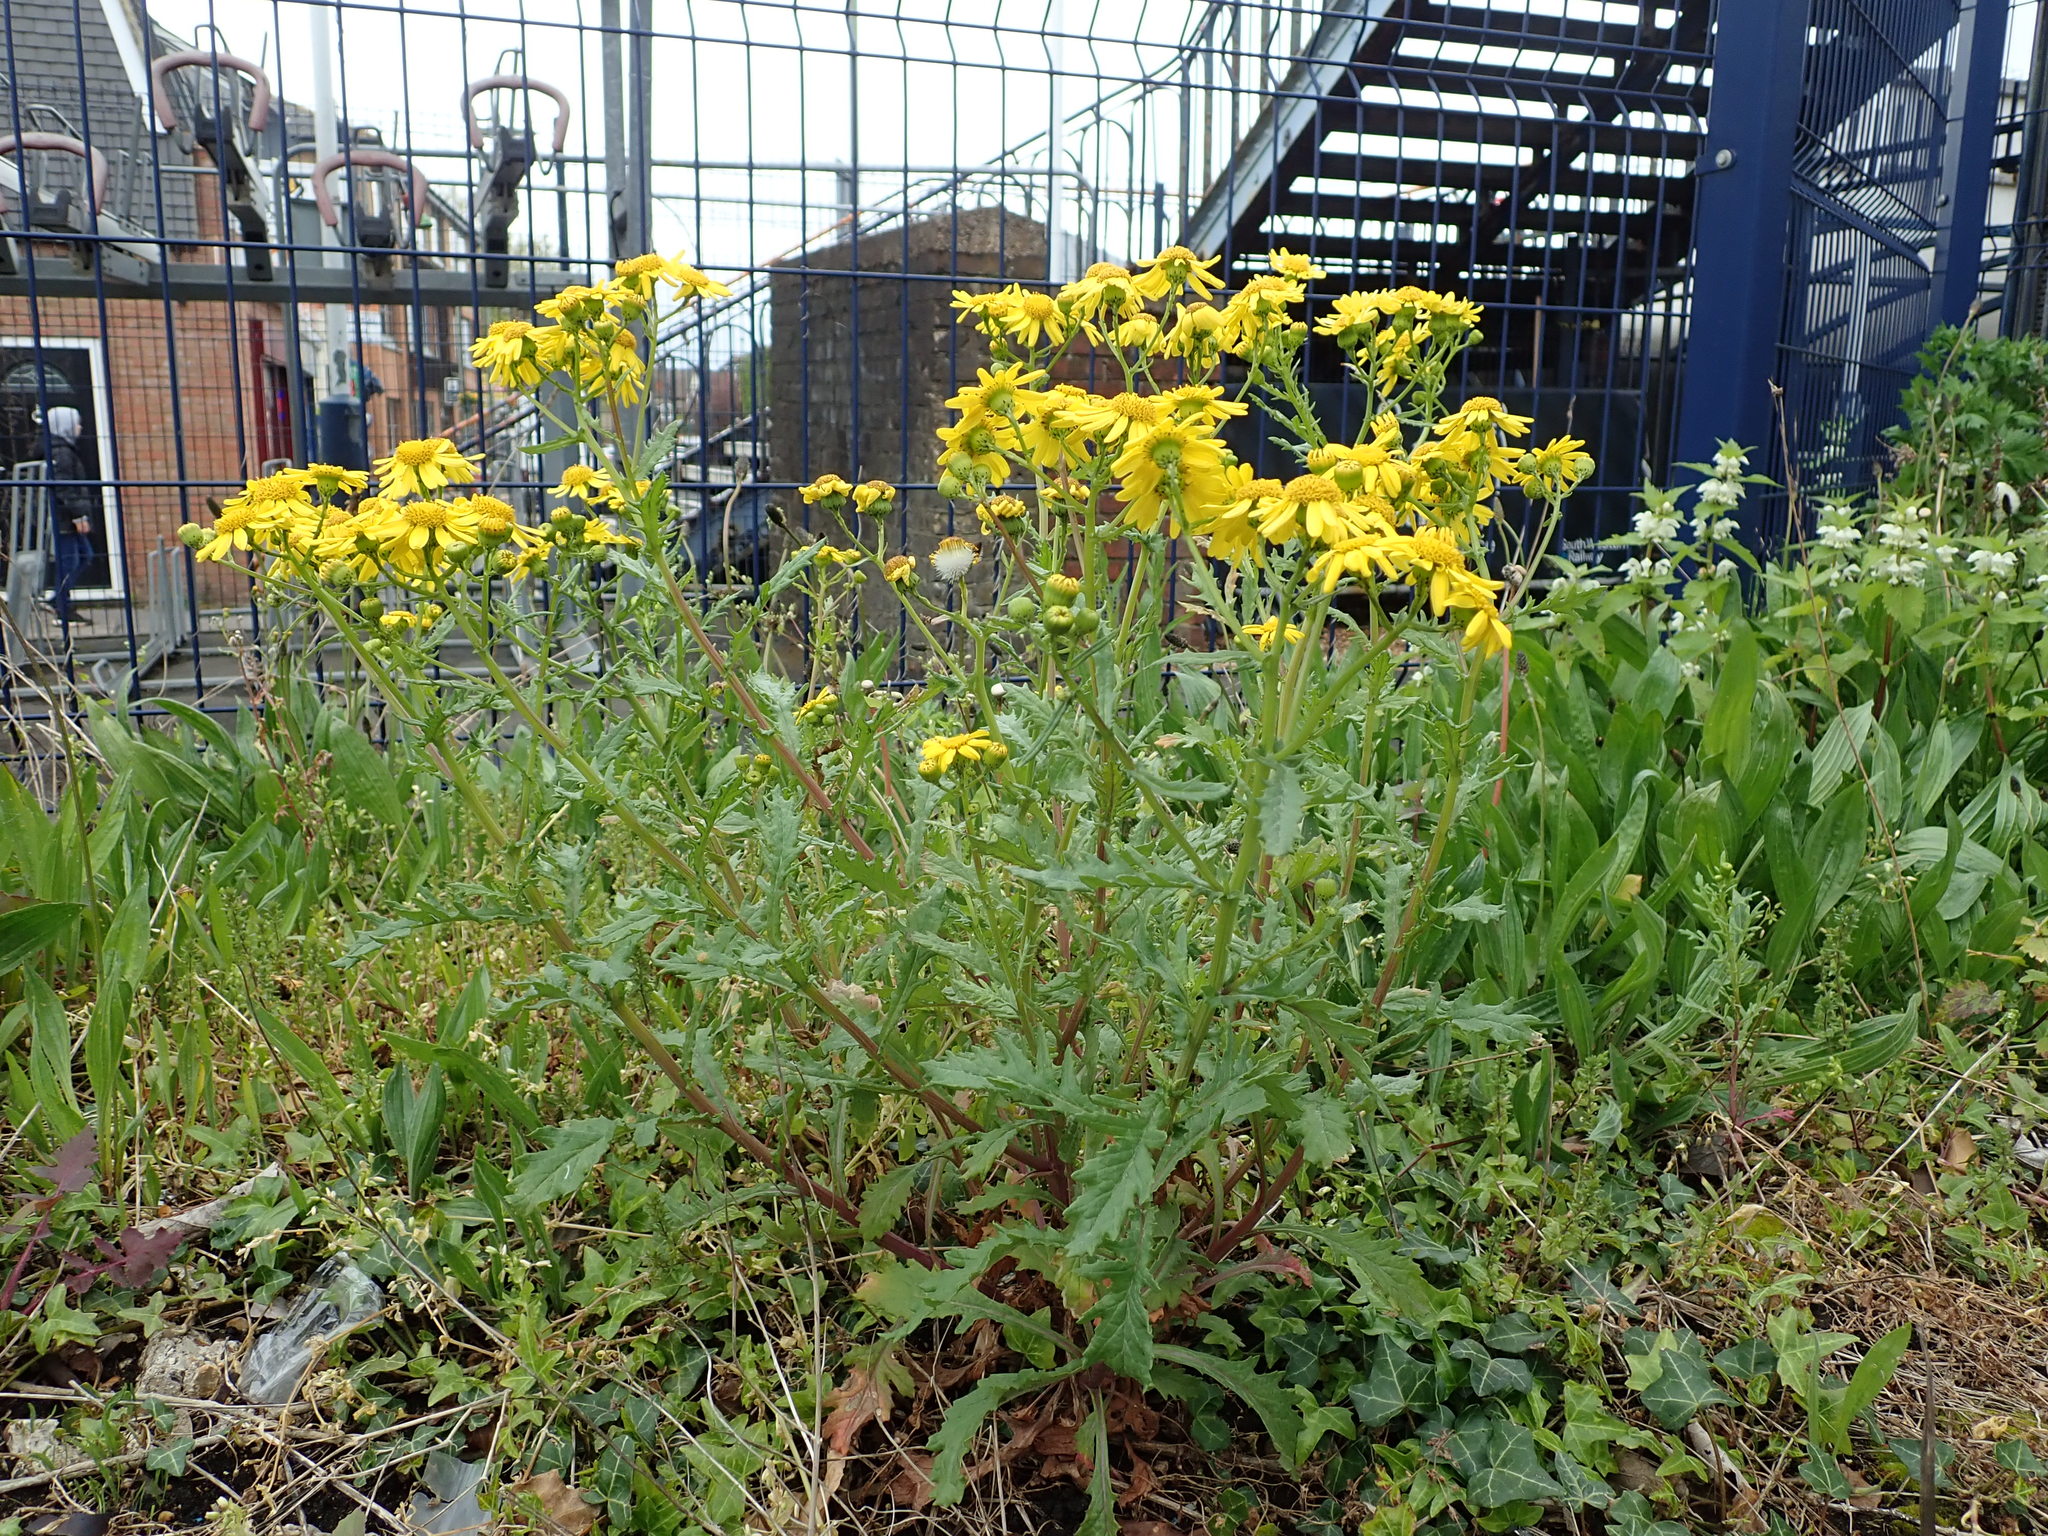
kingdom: Plantae
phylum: Tracheophyta
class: Magnoliopsida
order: Asterales
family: Asteraceae
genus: Senecio
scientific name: Senecio squalidus
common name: Oxford ragwort
